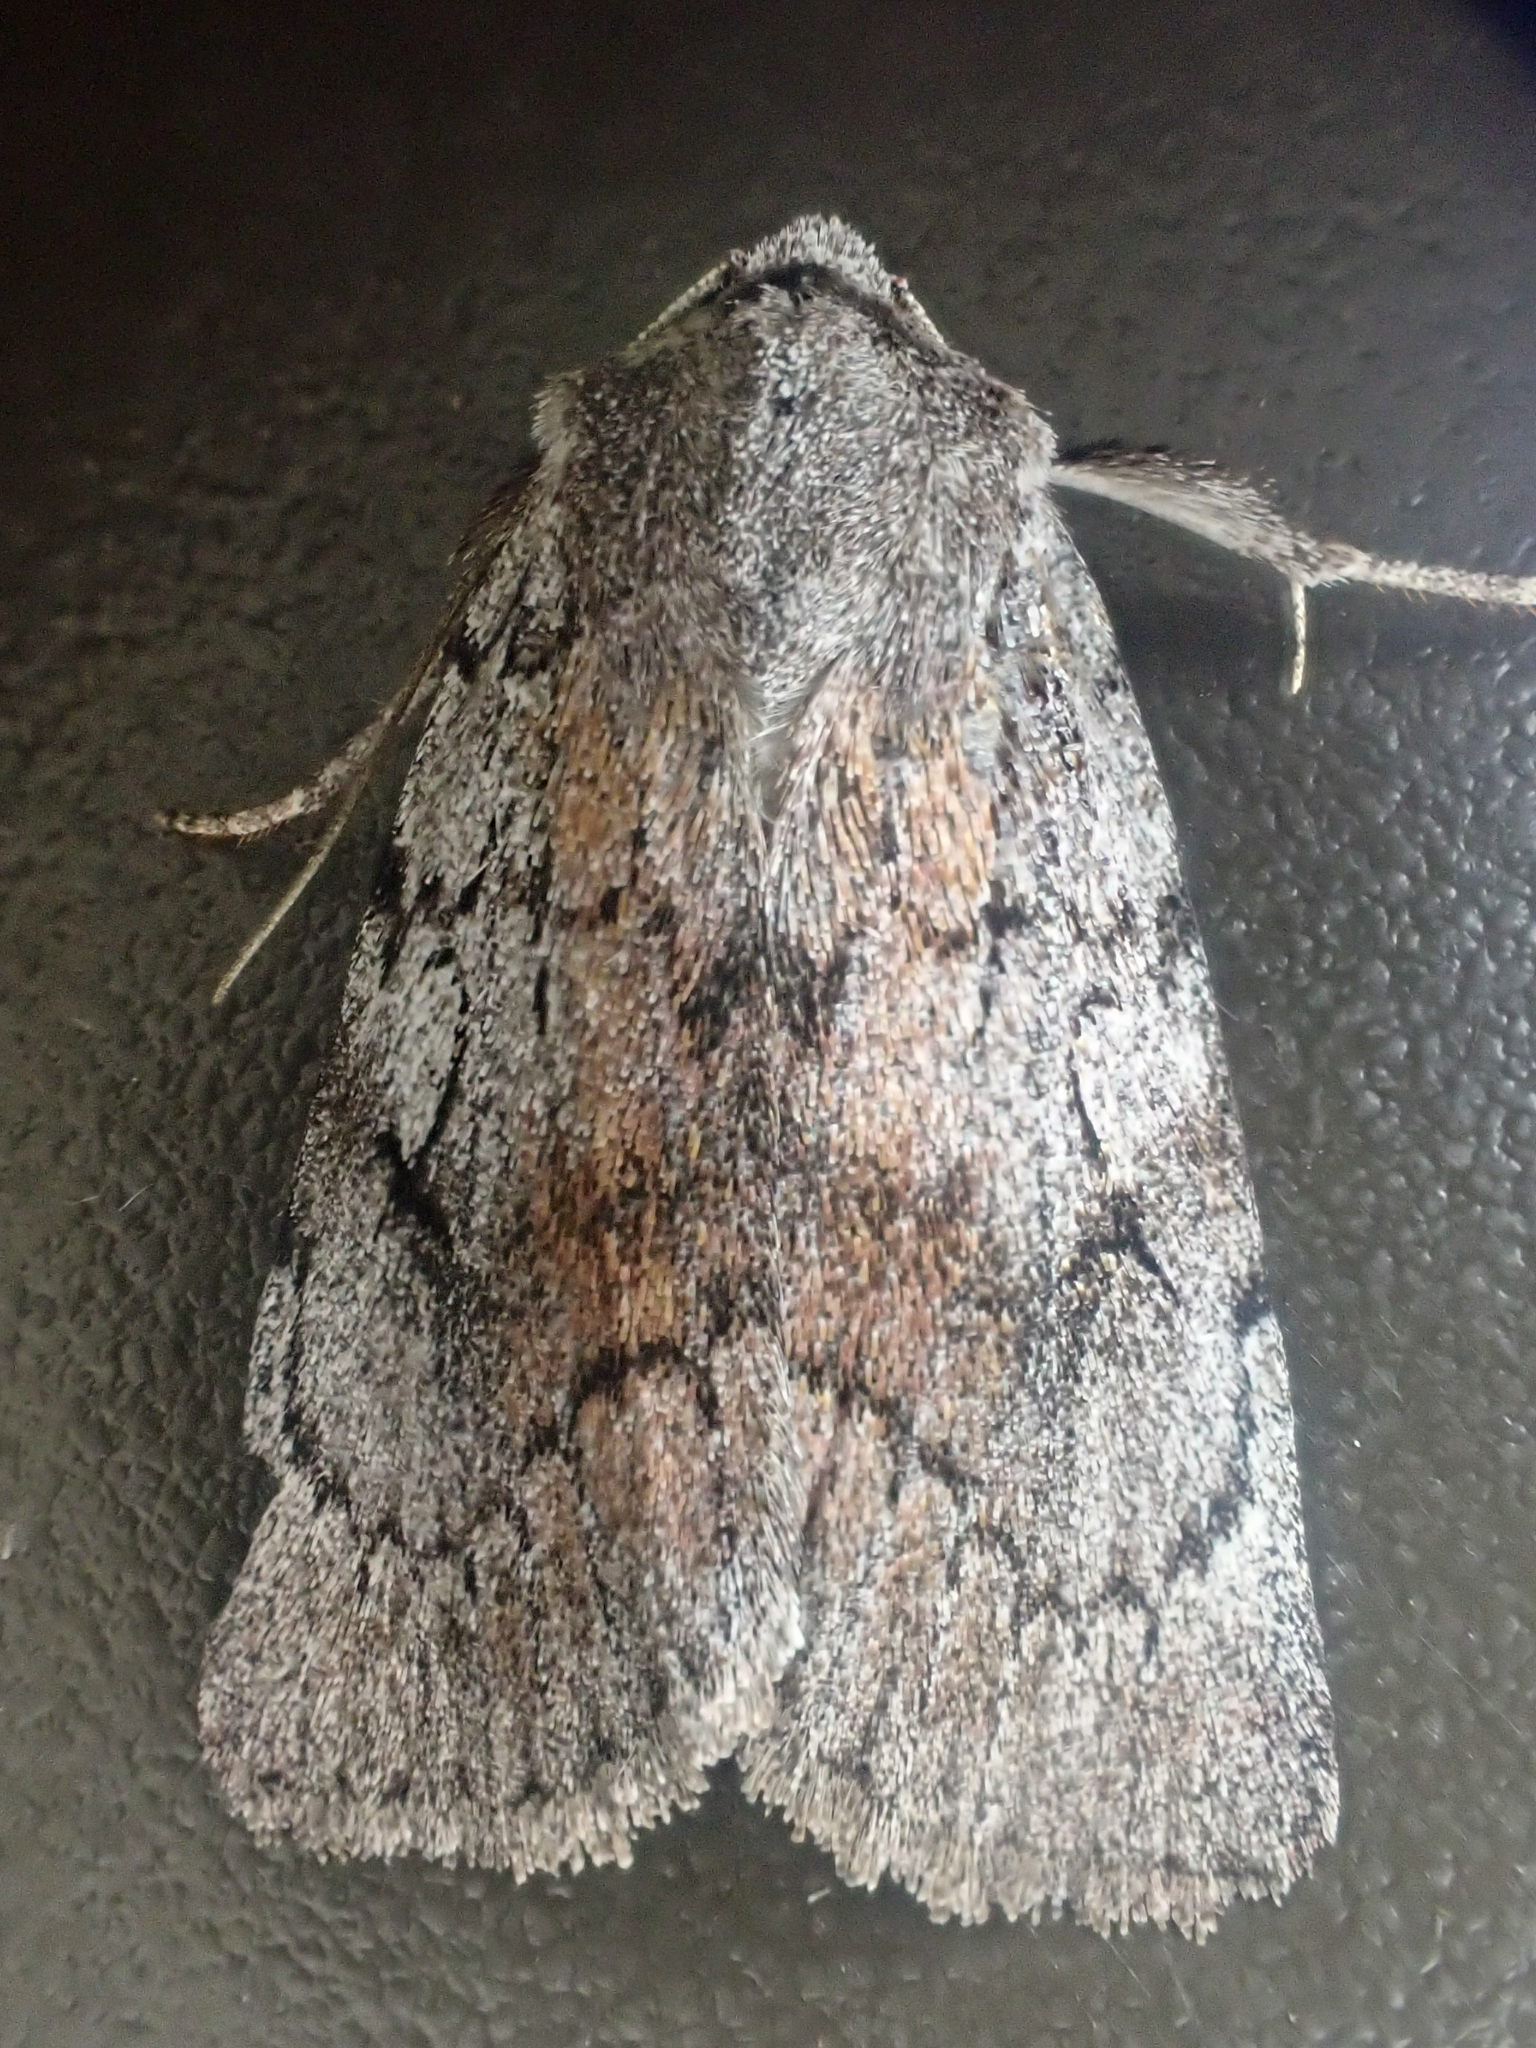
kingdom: Animalia
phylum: Arthropoda
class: Insecta
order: Lepidoptera
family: Noctuidae
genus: Setagrotis
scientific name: Setagrotis pallidicollis
